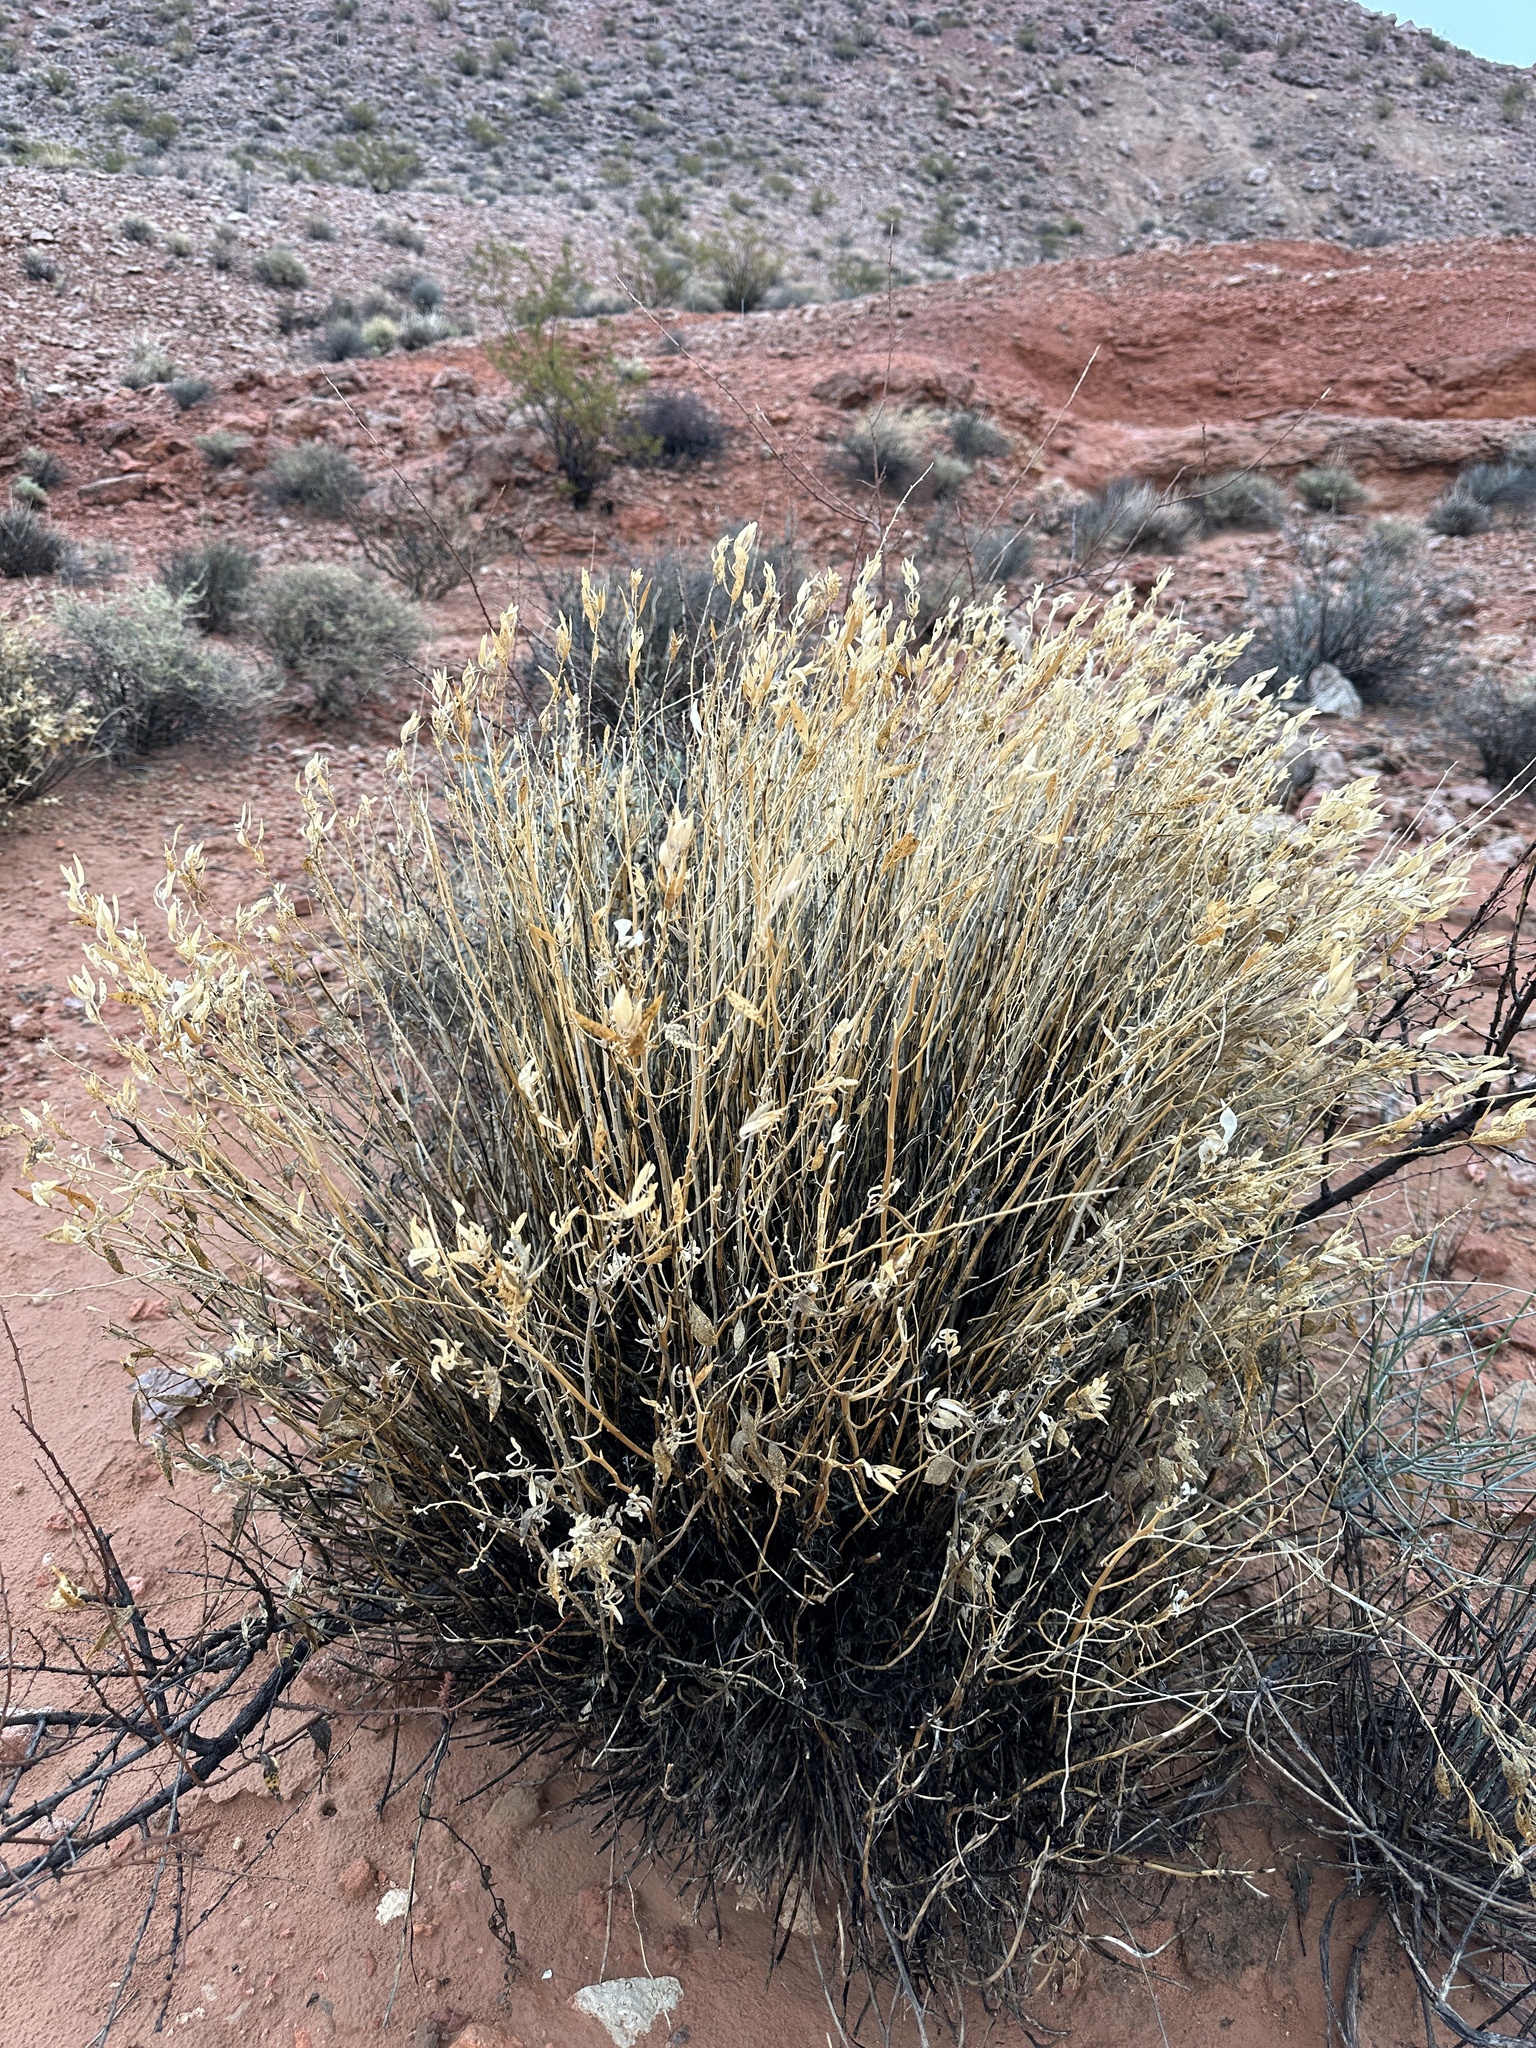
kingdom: Plantae
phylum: Tracheophyta
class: Magnoliopsida
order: Gentianales
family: Apocynaceae
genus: Amsonia
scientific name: Amsonia tomentosa
